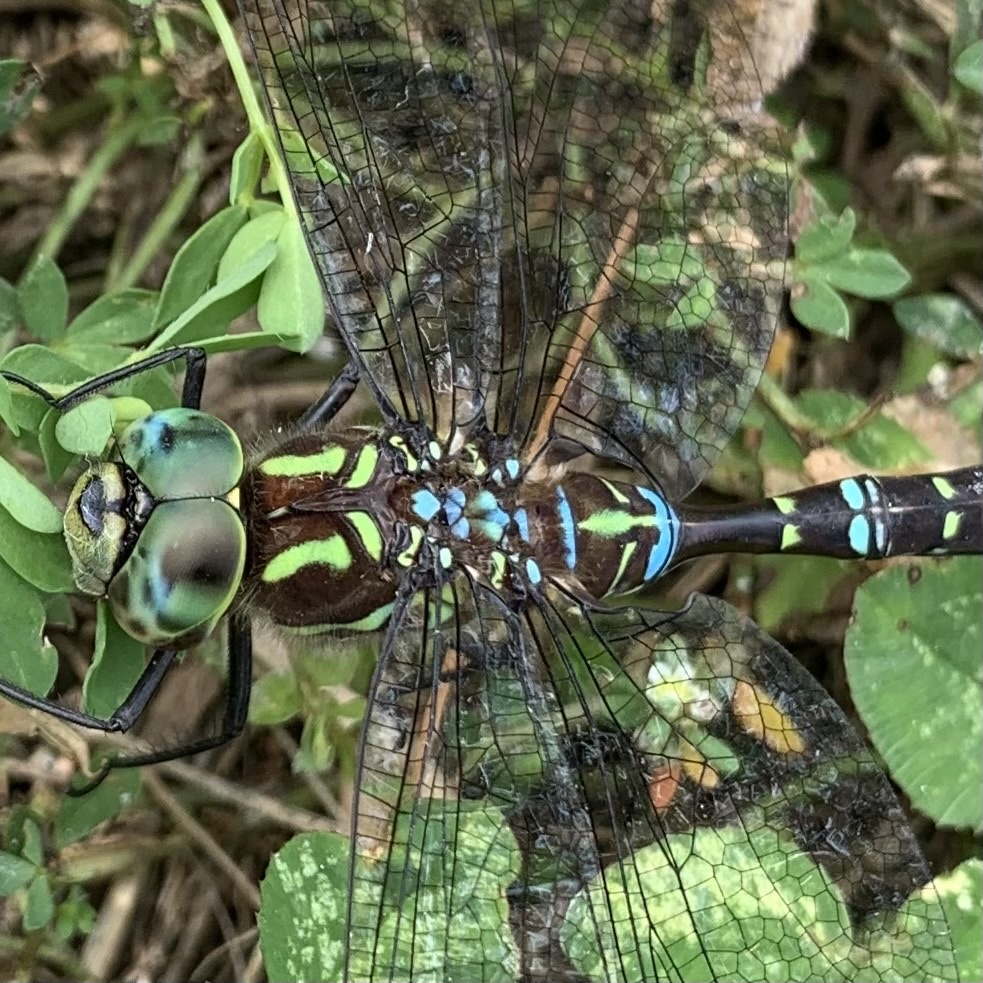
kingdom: Animalia
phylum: Arthropoda
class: Insecta
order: Odonata
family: Aeshnidae
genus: Aeshna
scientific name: Aeshna umbrosa
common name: Shadow darner
